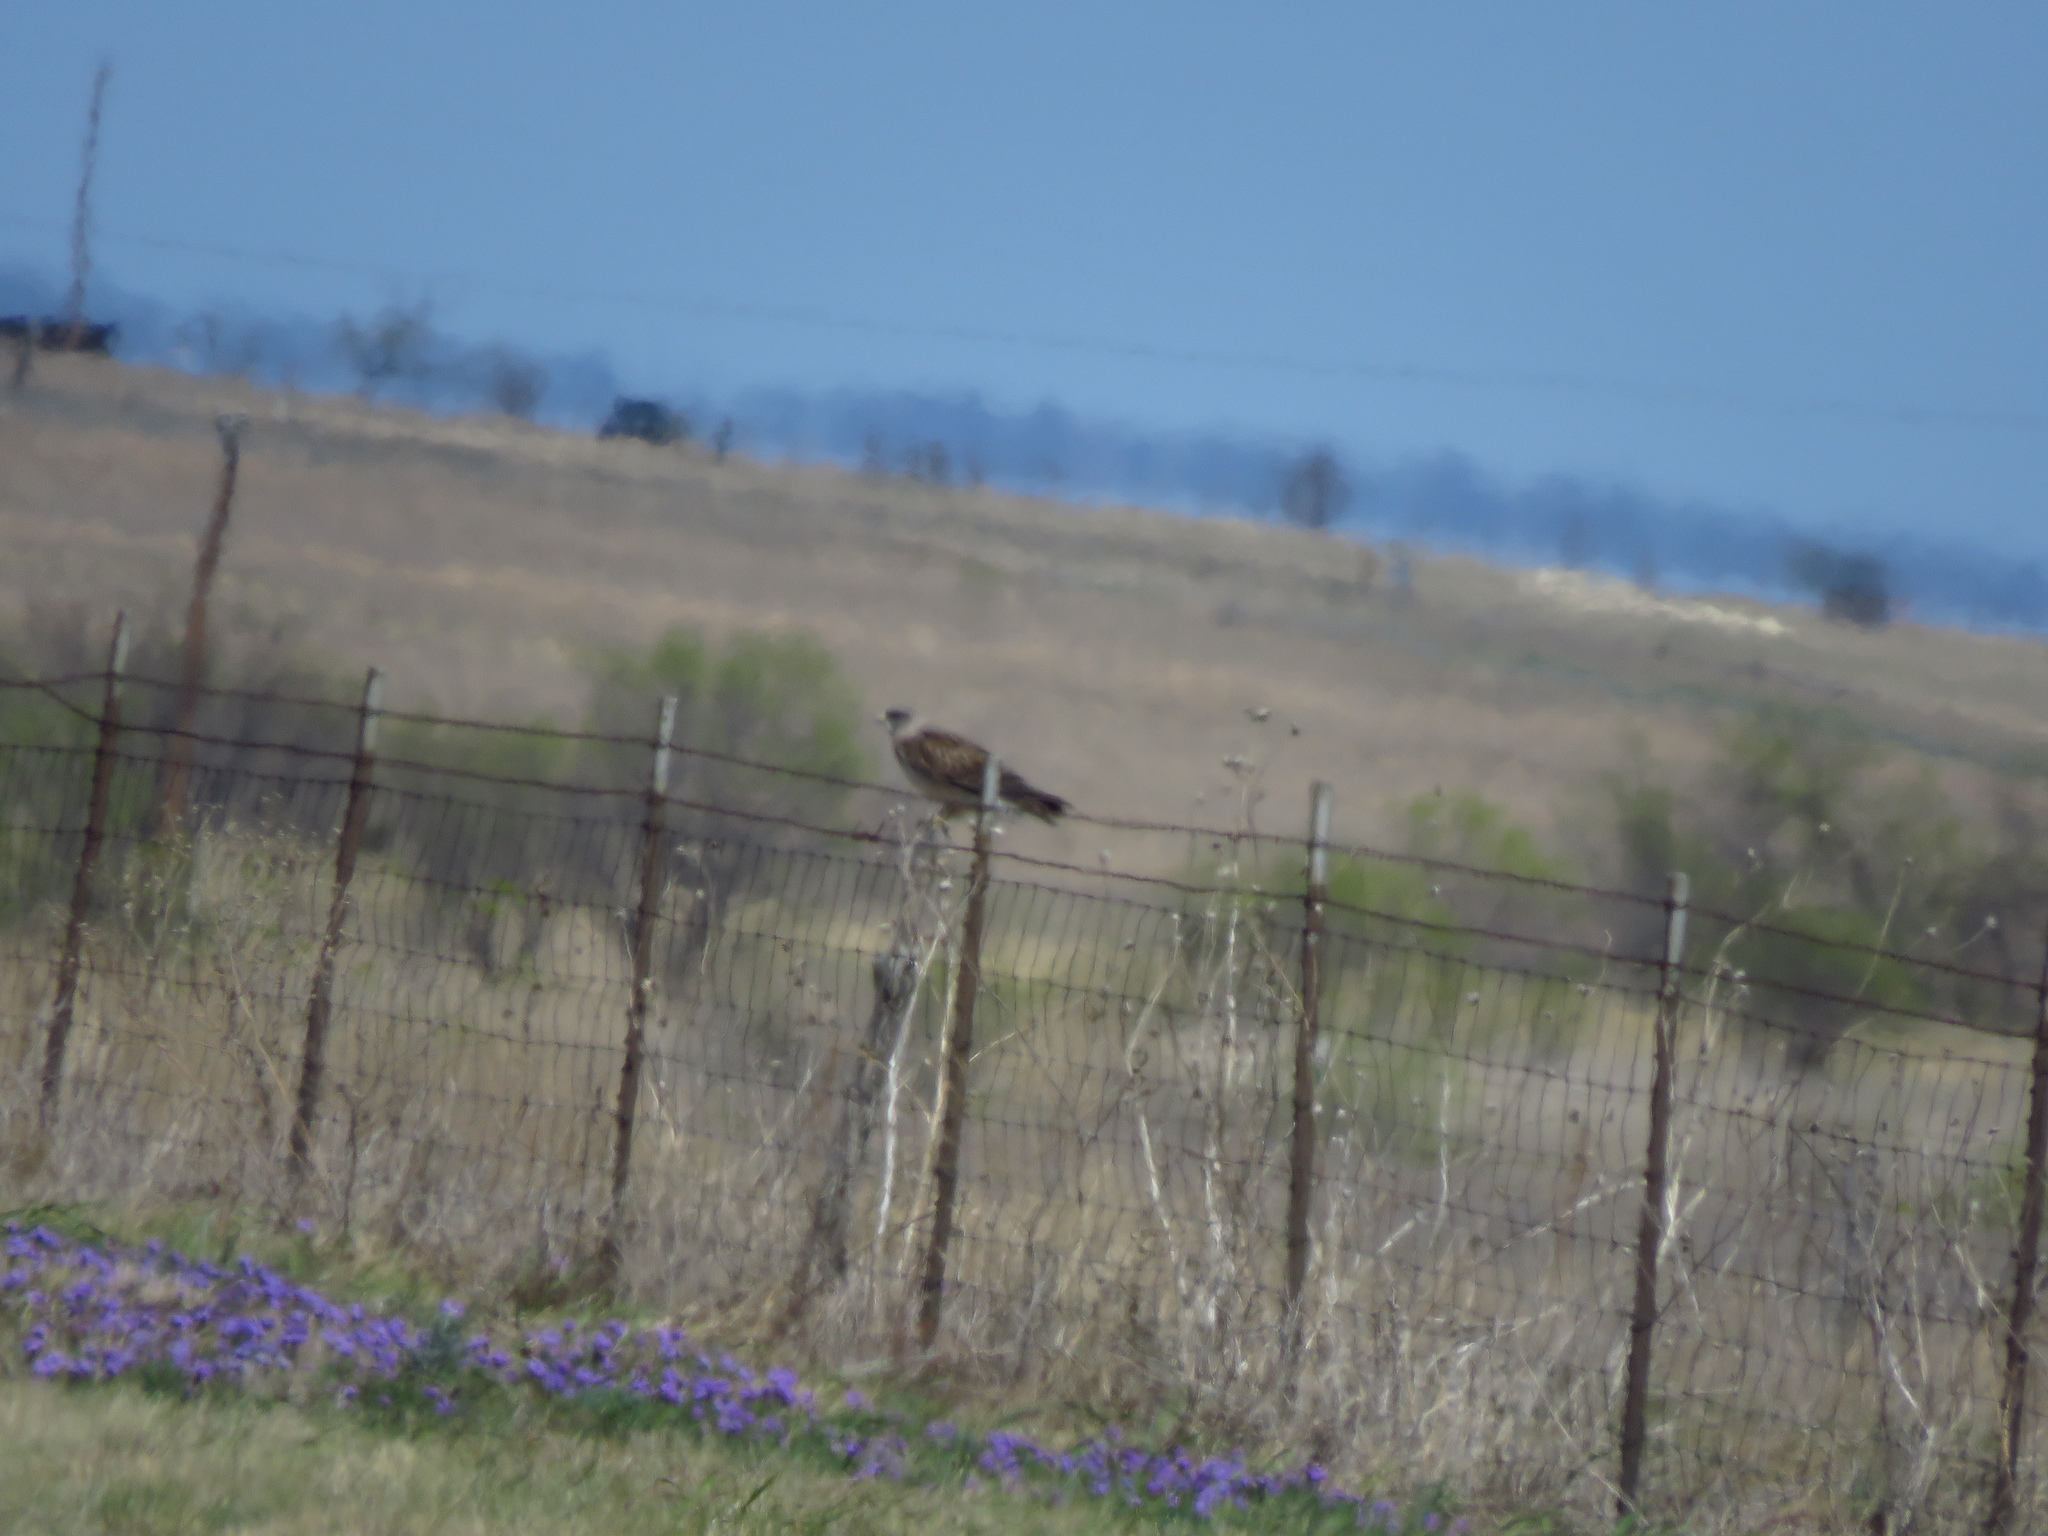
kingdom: Animalia
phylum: Chordata
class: Aves
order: Accipitriformes
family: Accipitridae
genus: Buteo
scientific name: Buteo swainsoni
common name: Swainson's hawk
